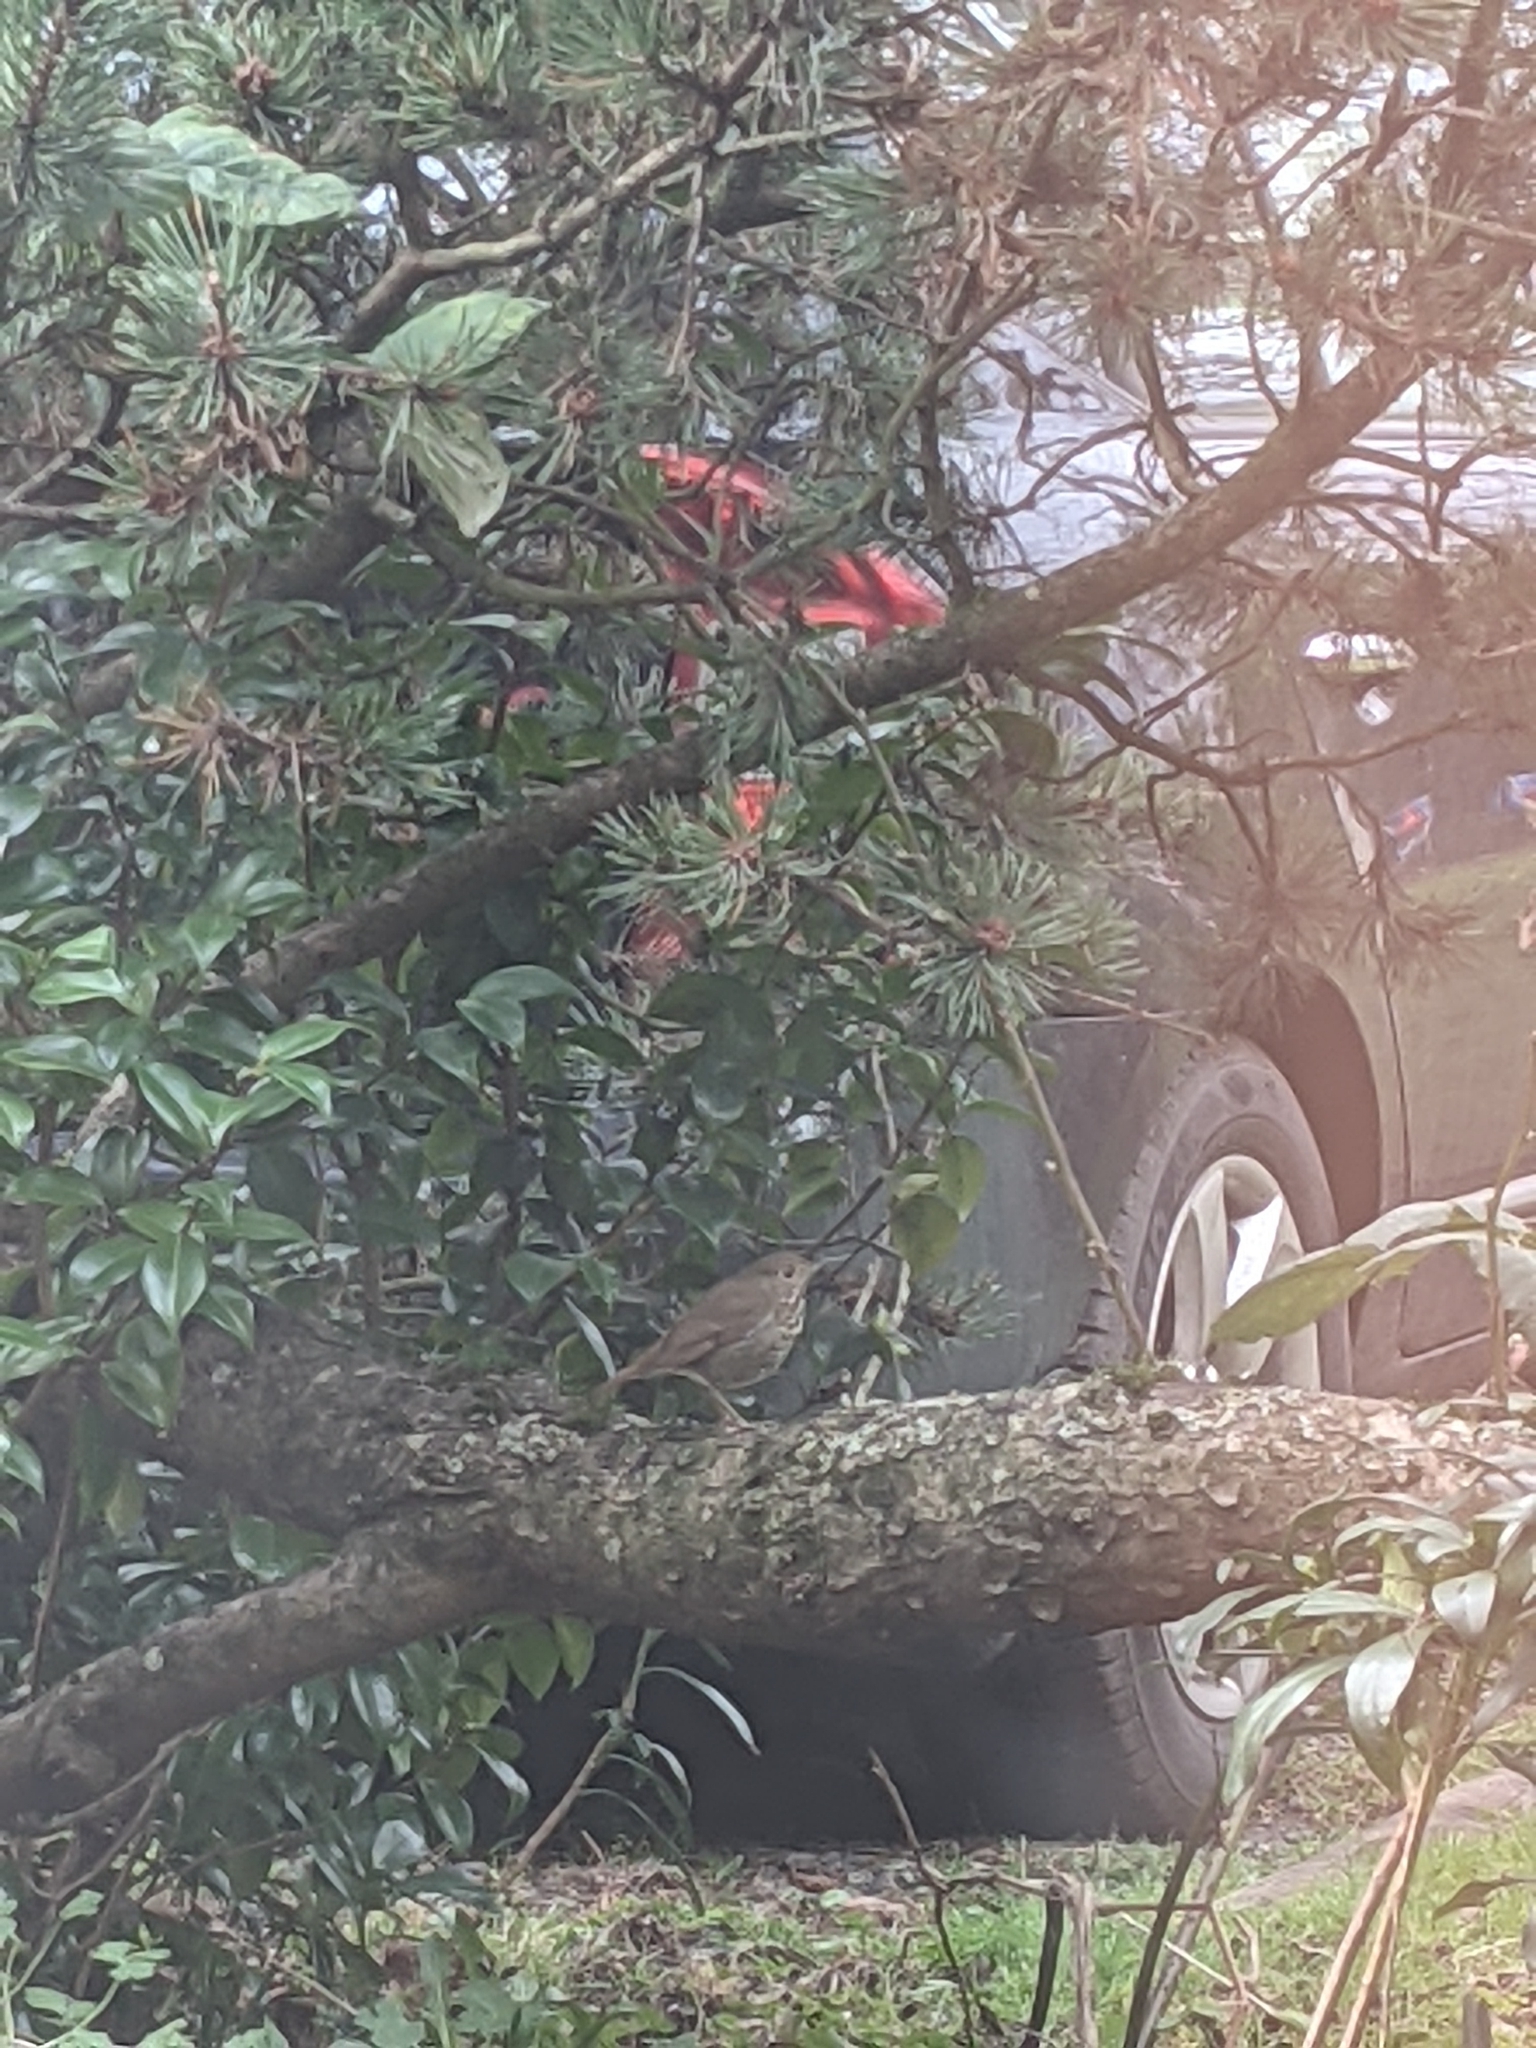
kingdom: Animalia
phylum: Chordata
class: Aves
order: Passeriformes
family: Turdidae
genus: Catharus
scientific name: Catharus guttatus
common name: Hermit thrush
